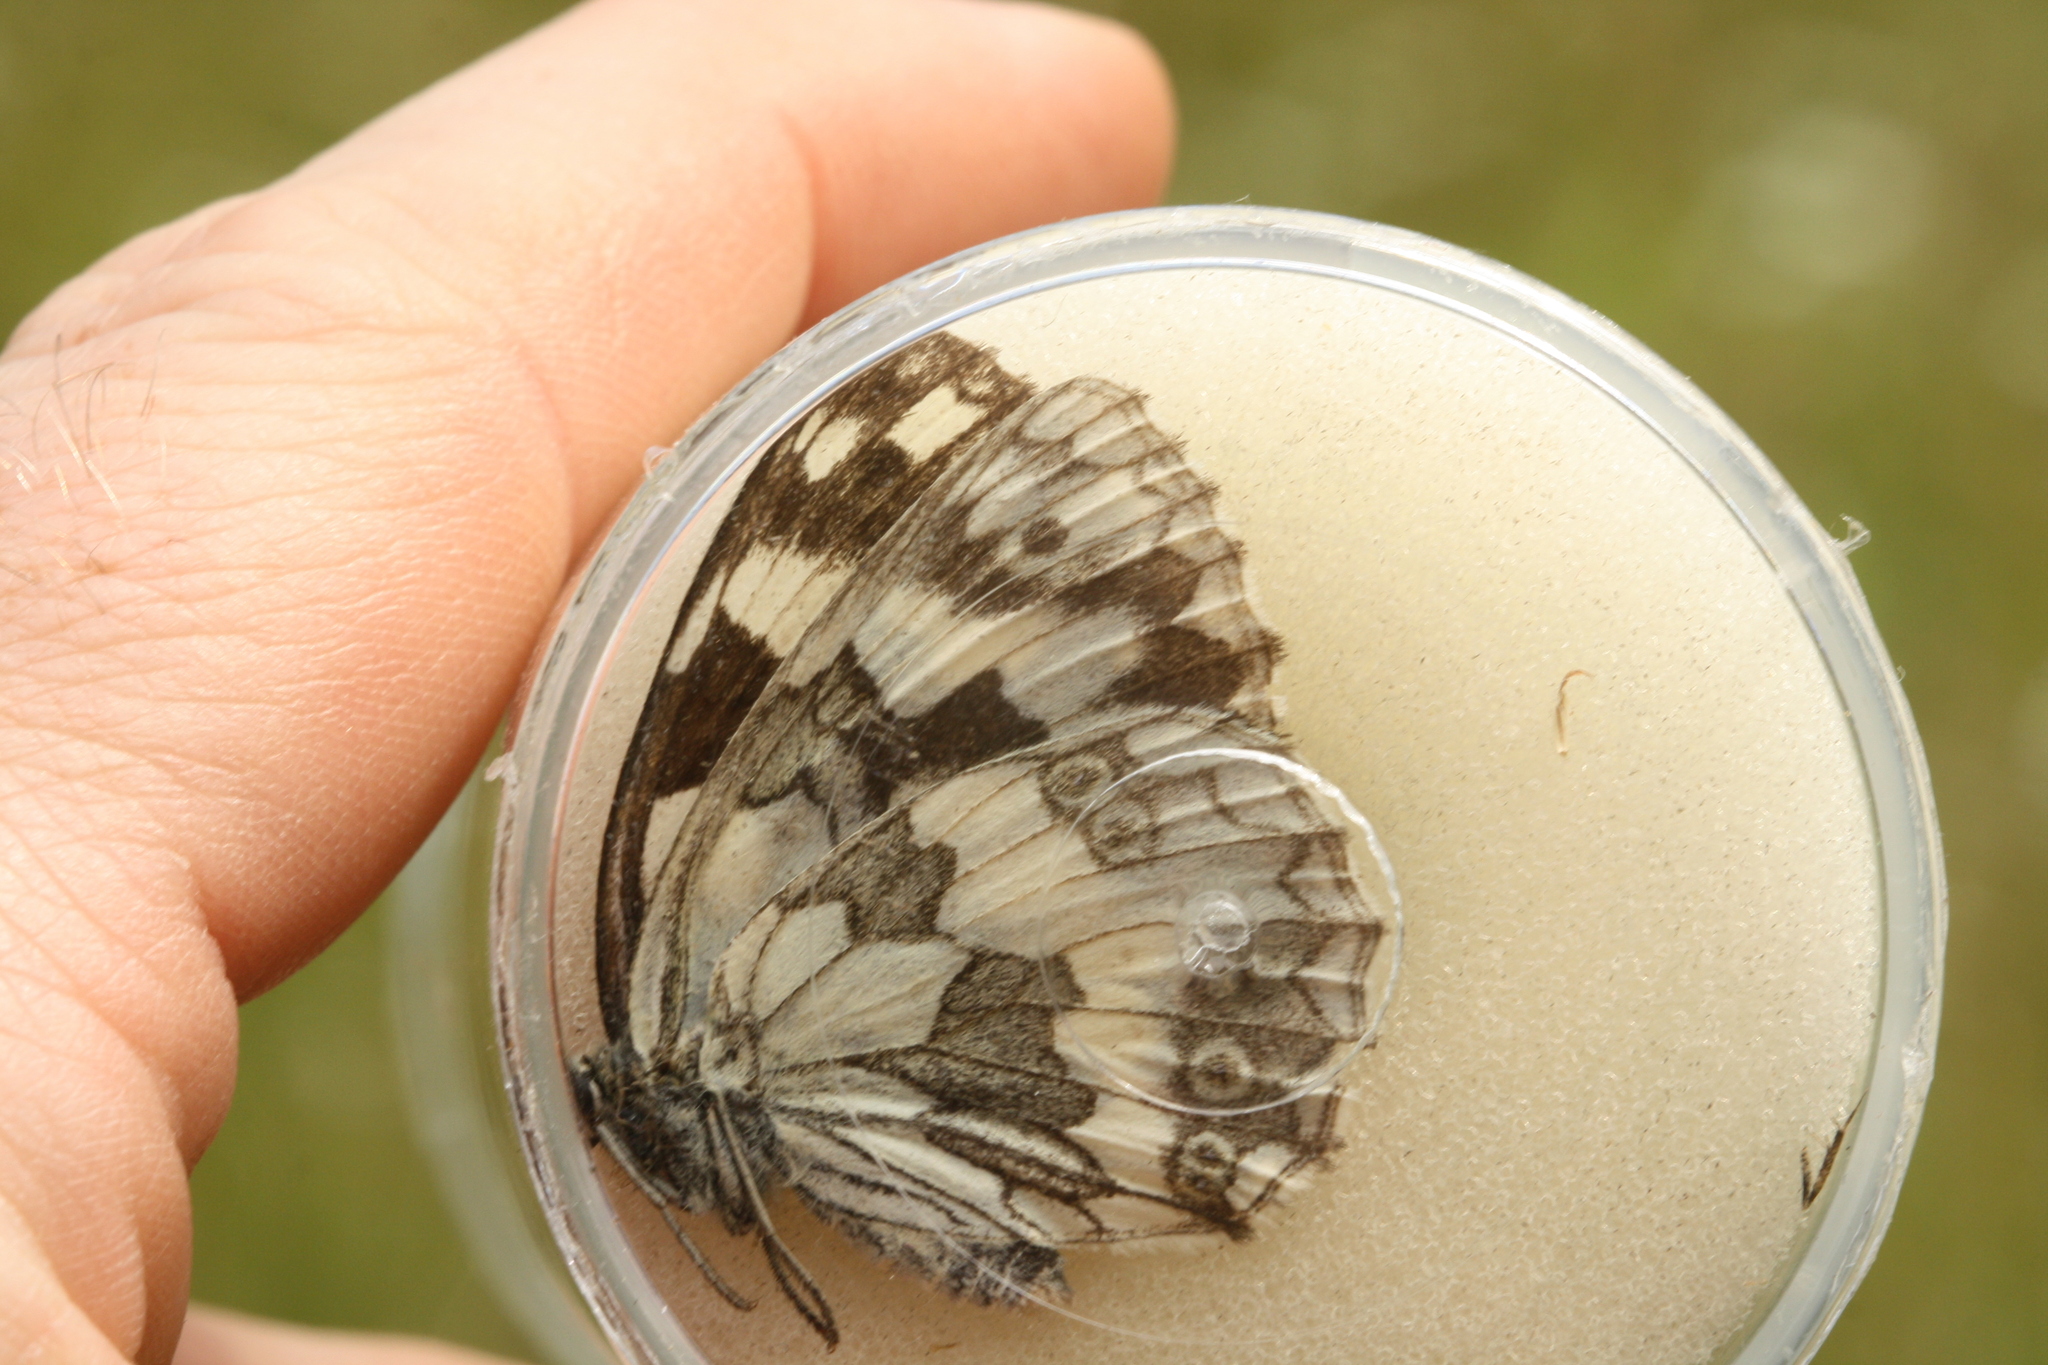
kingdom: Animalia
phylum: Arthropoda
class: Insecta
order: Lepidoptera
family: Nymphalidae
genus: Melanargia
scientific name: Melanargia galathea
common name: Marbled white
